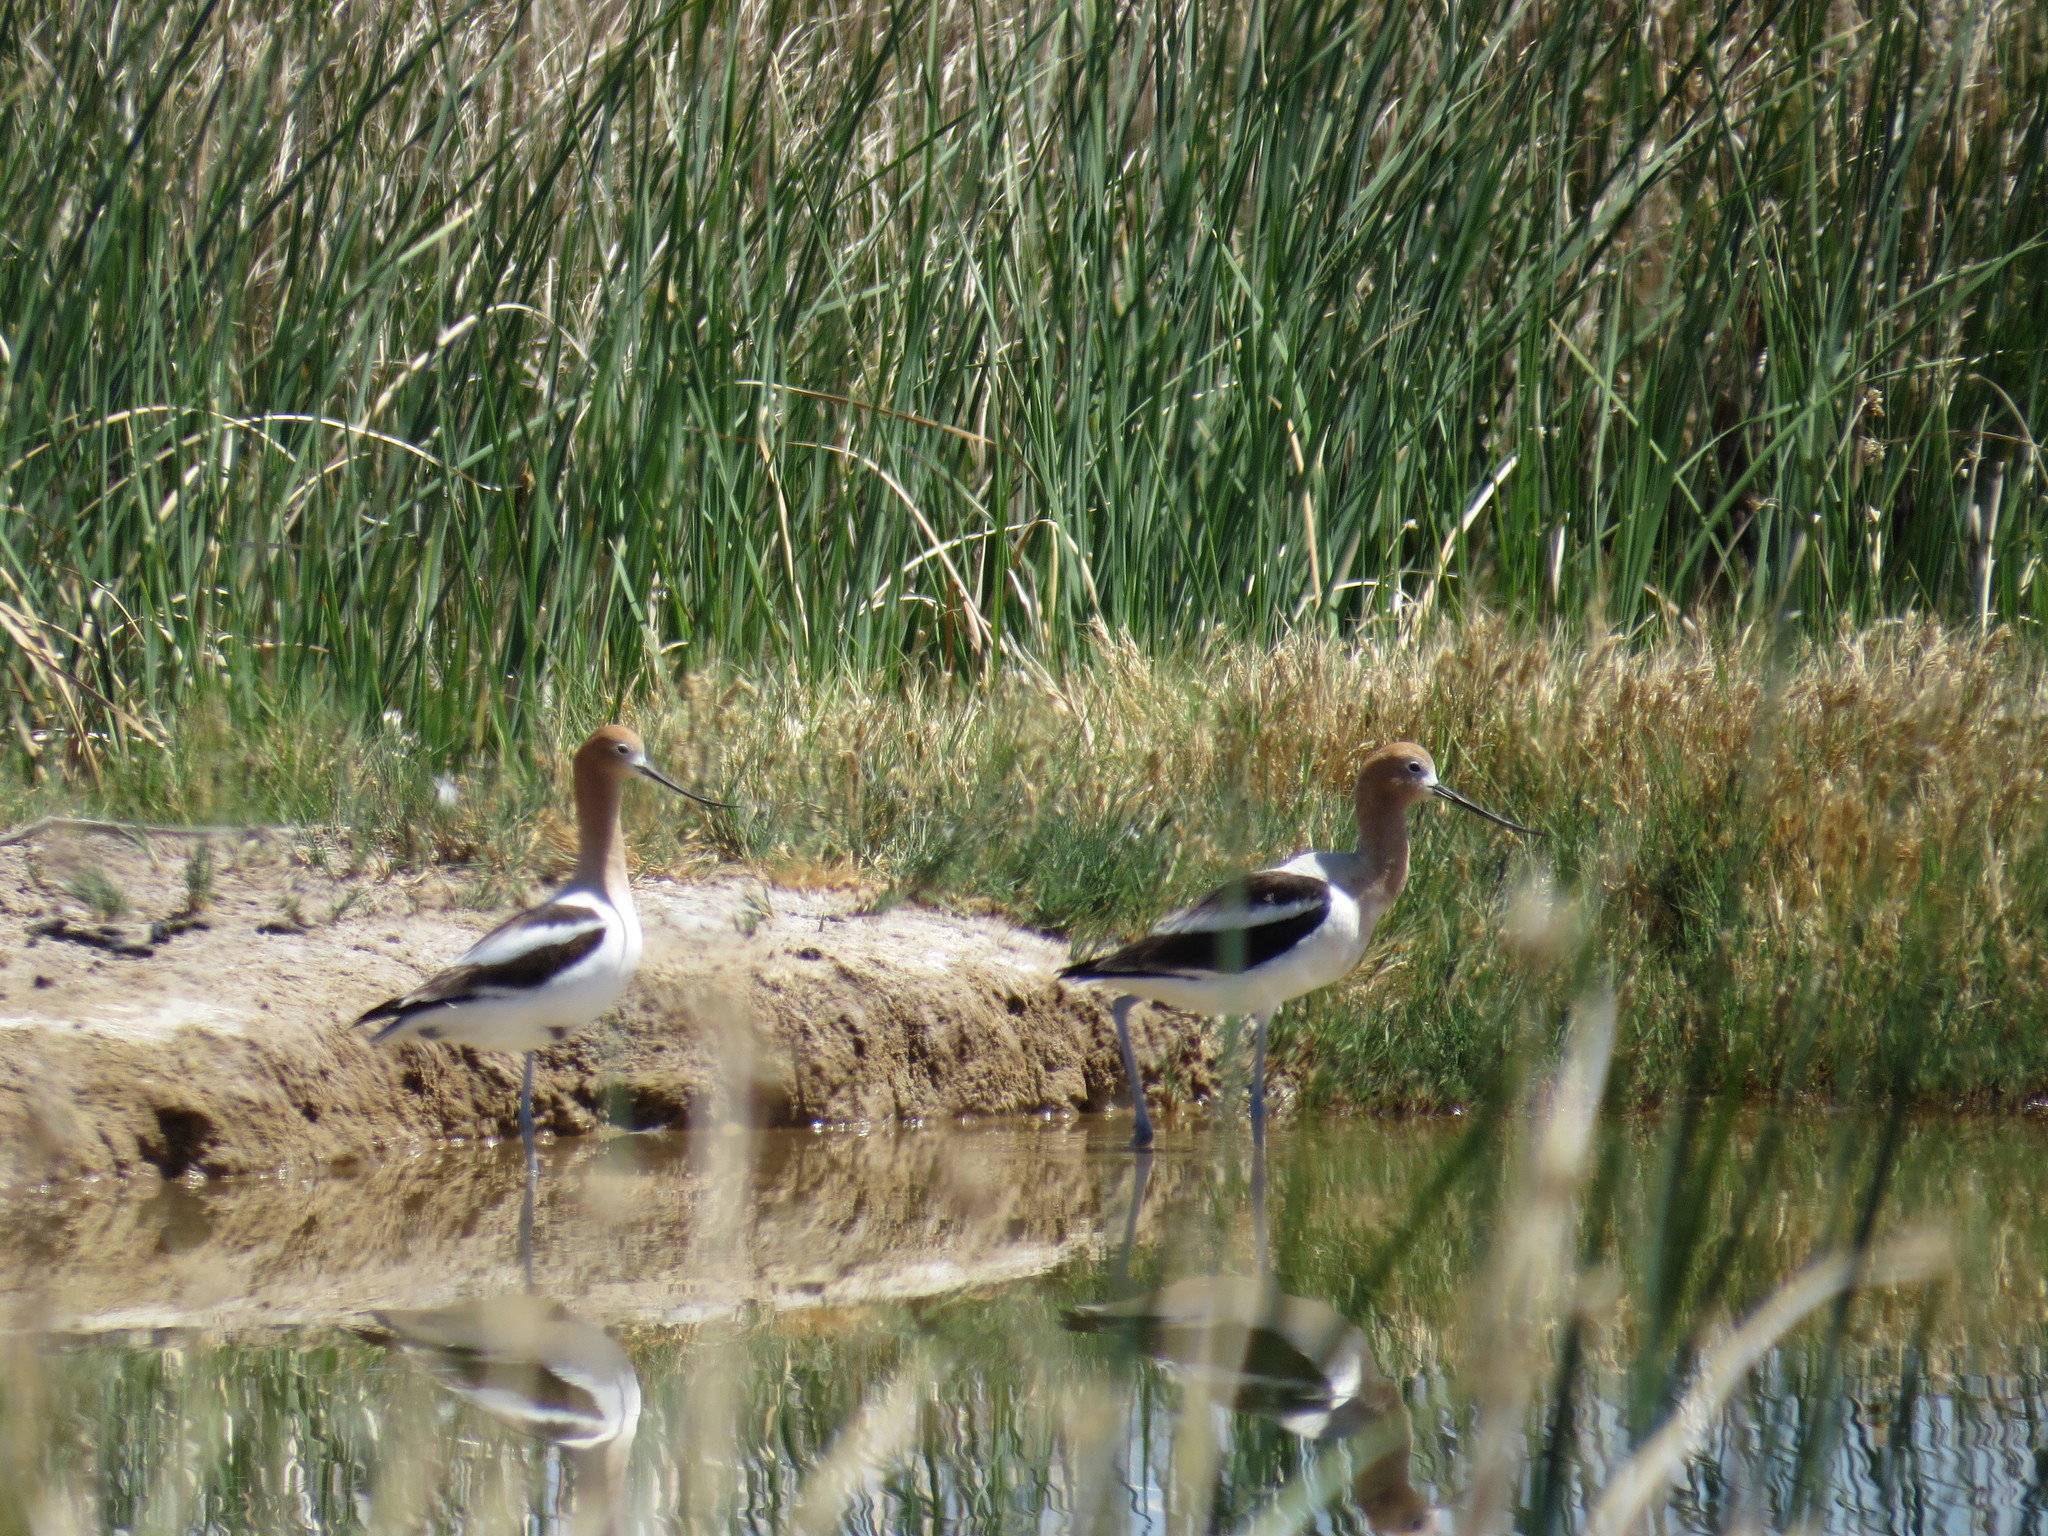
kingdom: Animalia
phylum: Chordata
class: Aves
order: Charadriiformes
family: Recurvirostridae
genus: Recurvirostra
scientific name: Recurvirostra americana
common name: American avocet
